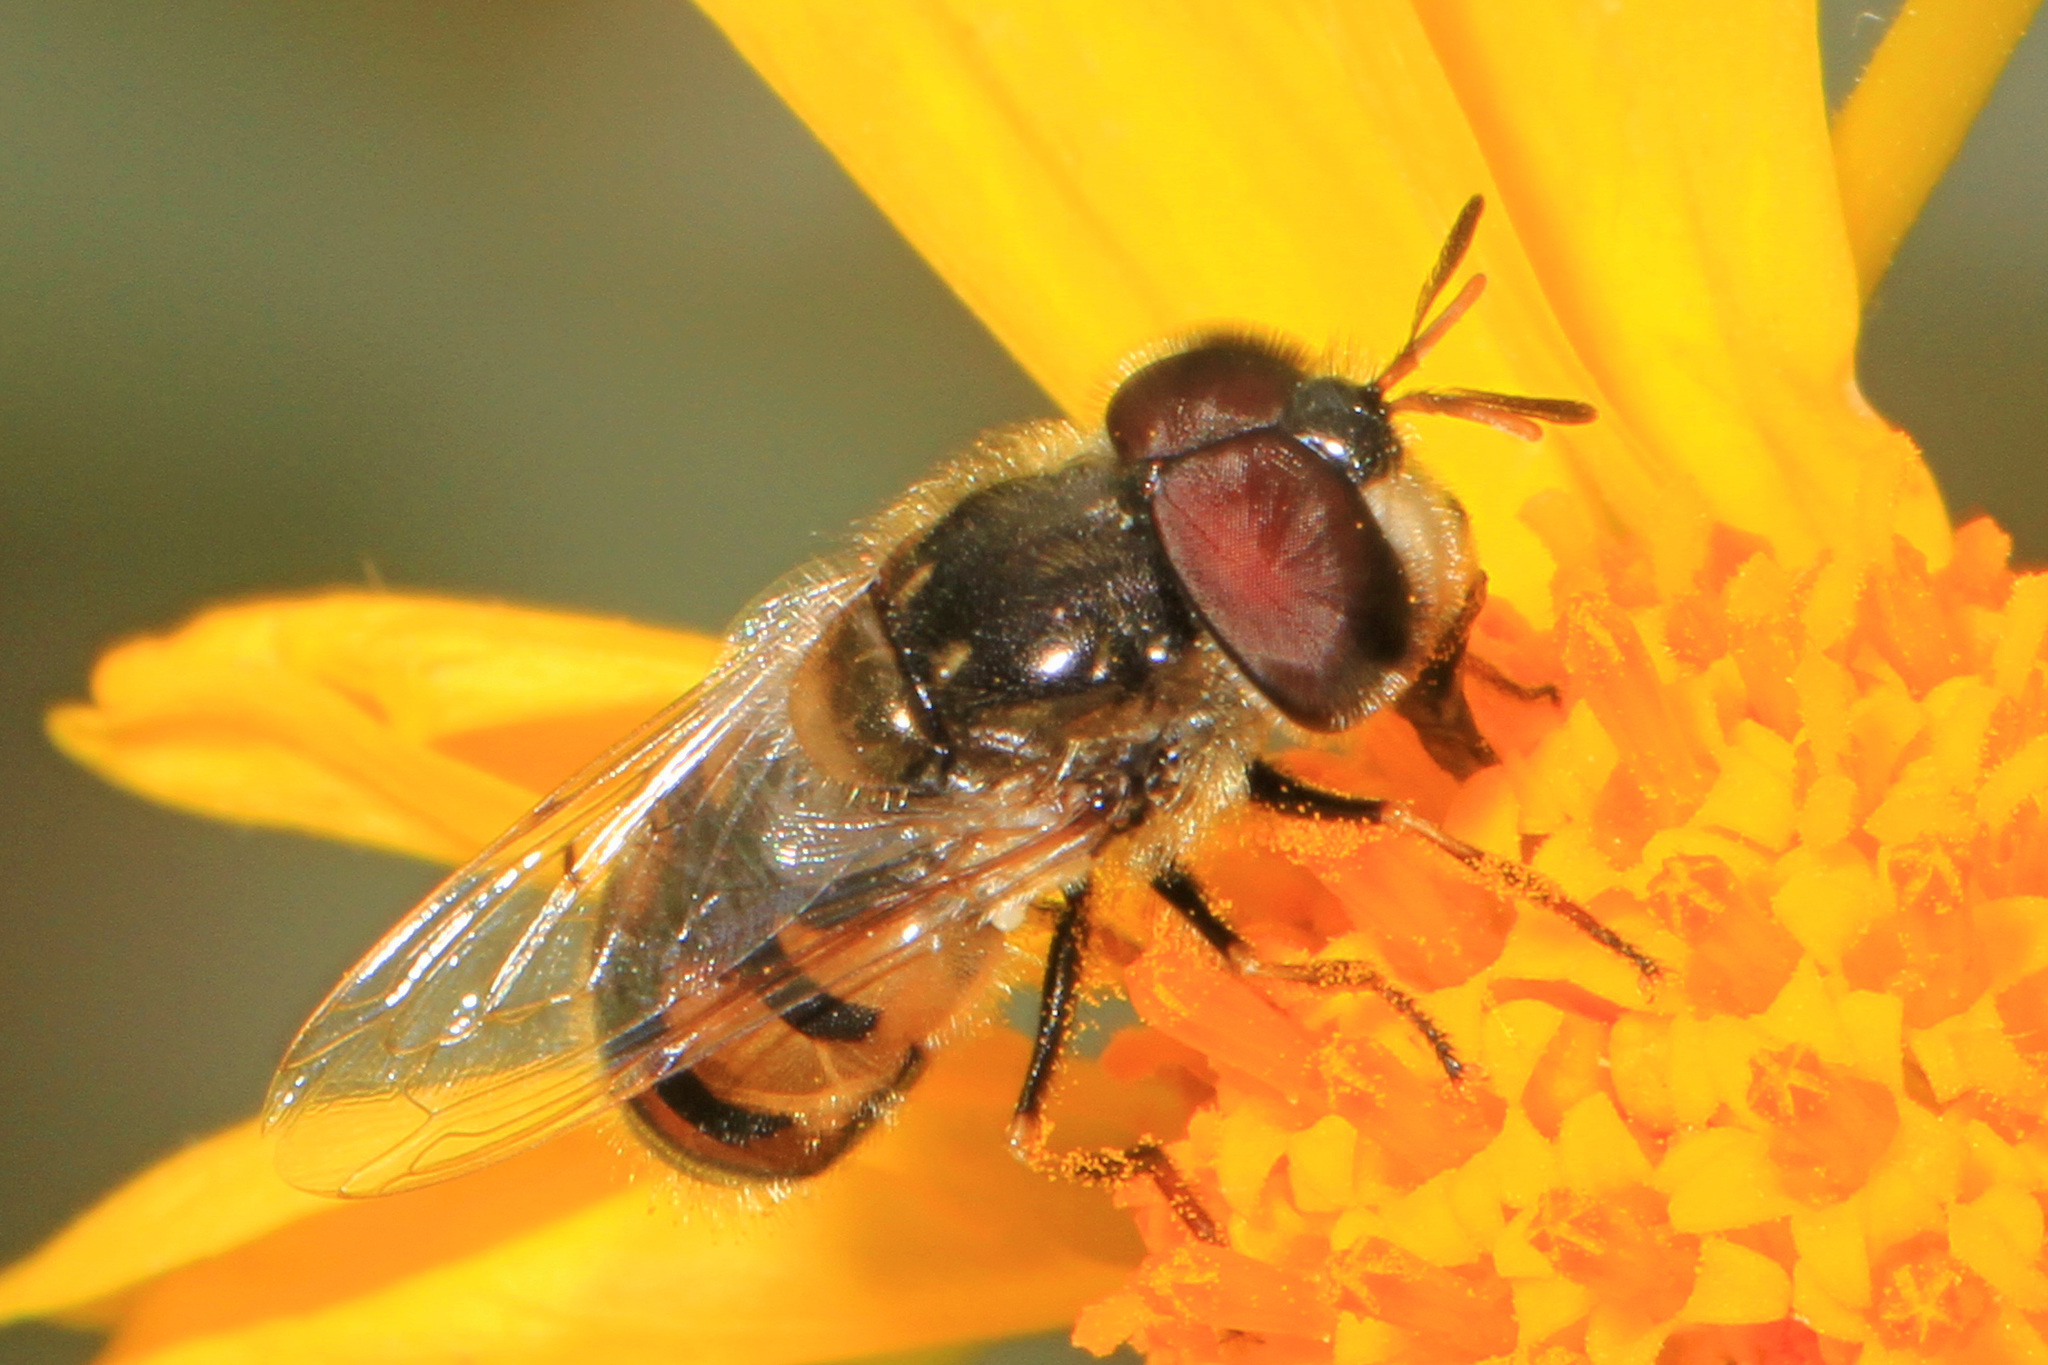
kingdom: Animalia
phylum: Arthropoda
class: Insecta
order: Diptera
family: Syrphidae
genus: Copestylum
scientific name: Copestylum marginatum
